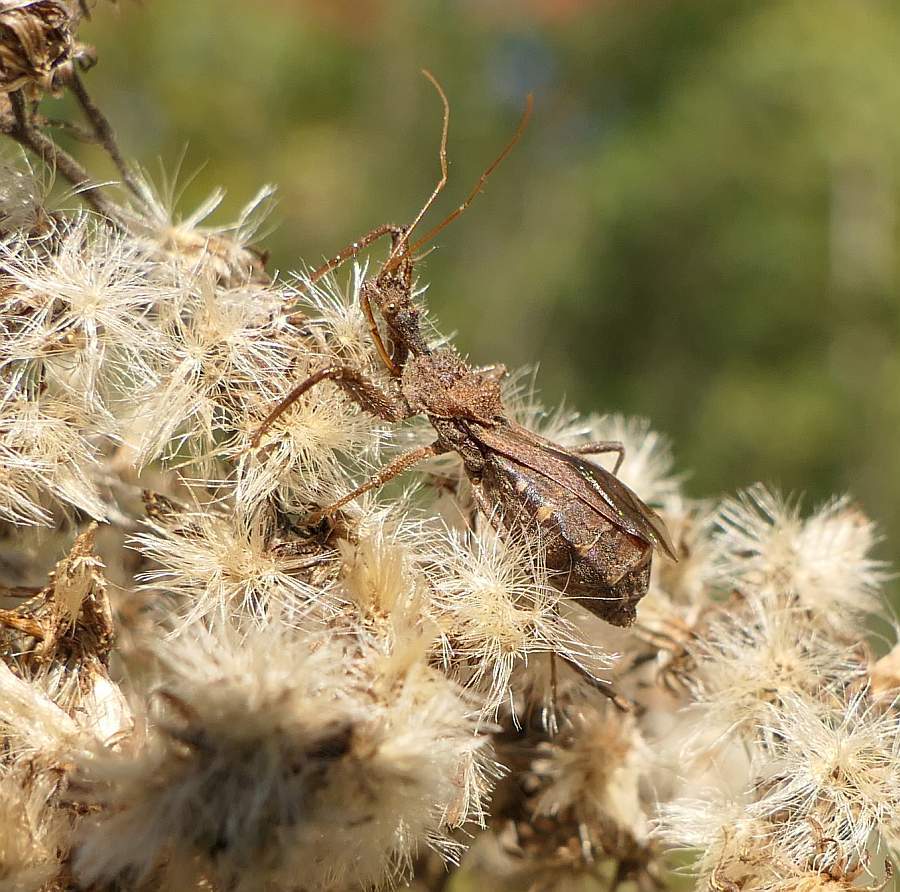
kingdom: Animalia
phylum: Arthropoda
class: Insecta
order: Hemiptera
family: Reduviidae
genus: Sinea
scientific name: Sinea diadema
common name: Spined assassin bug
